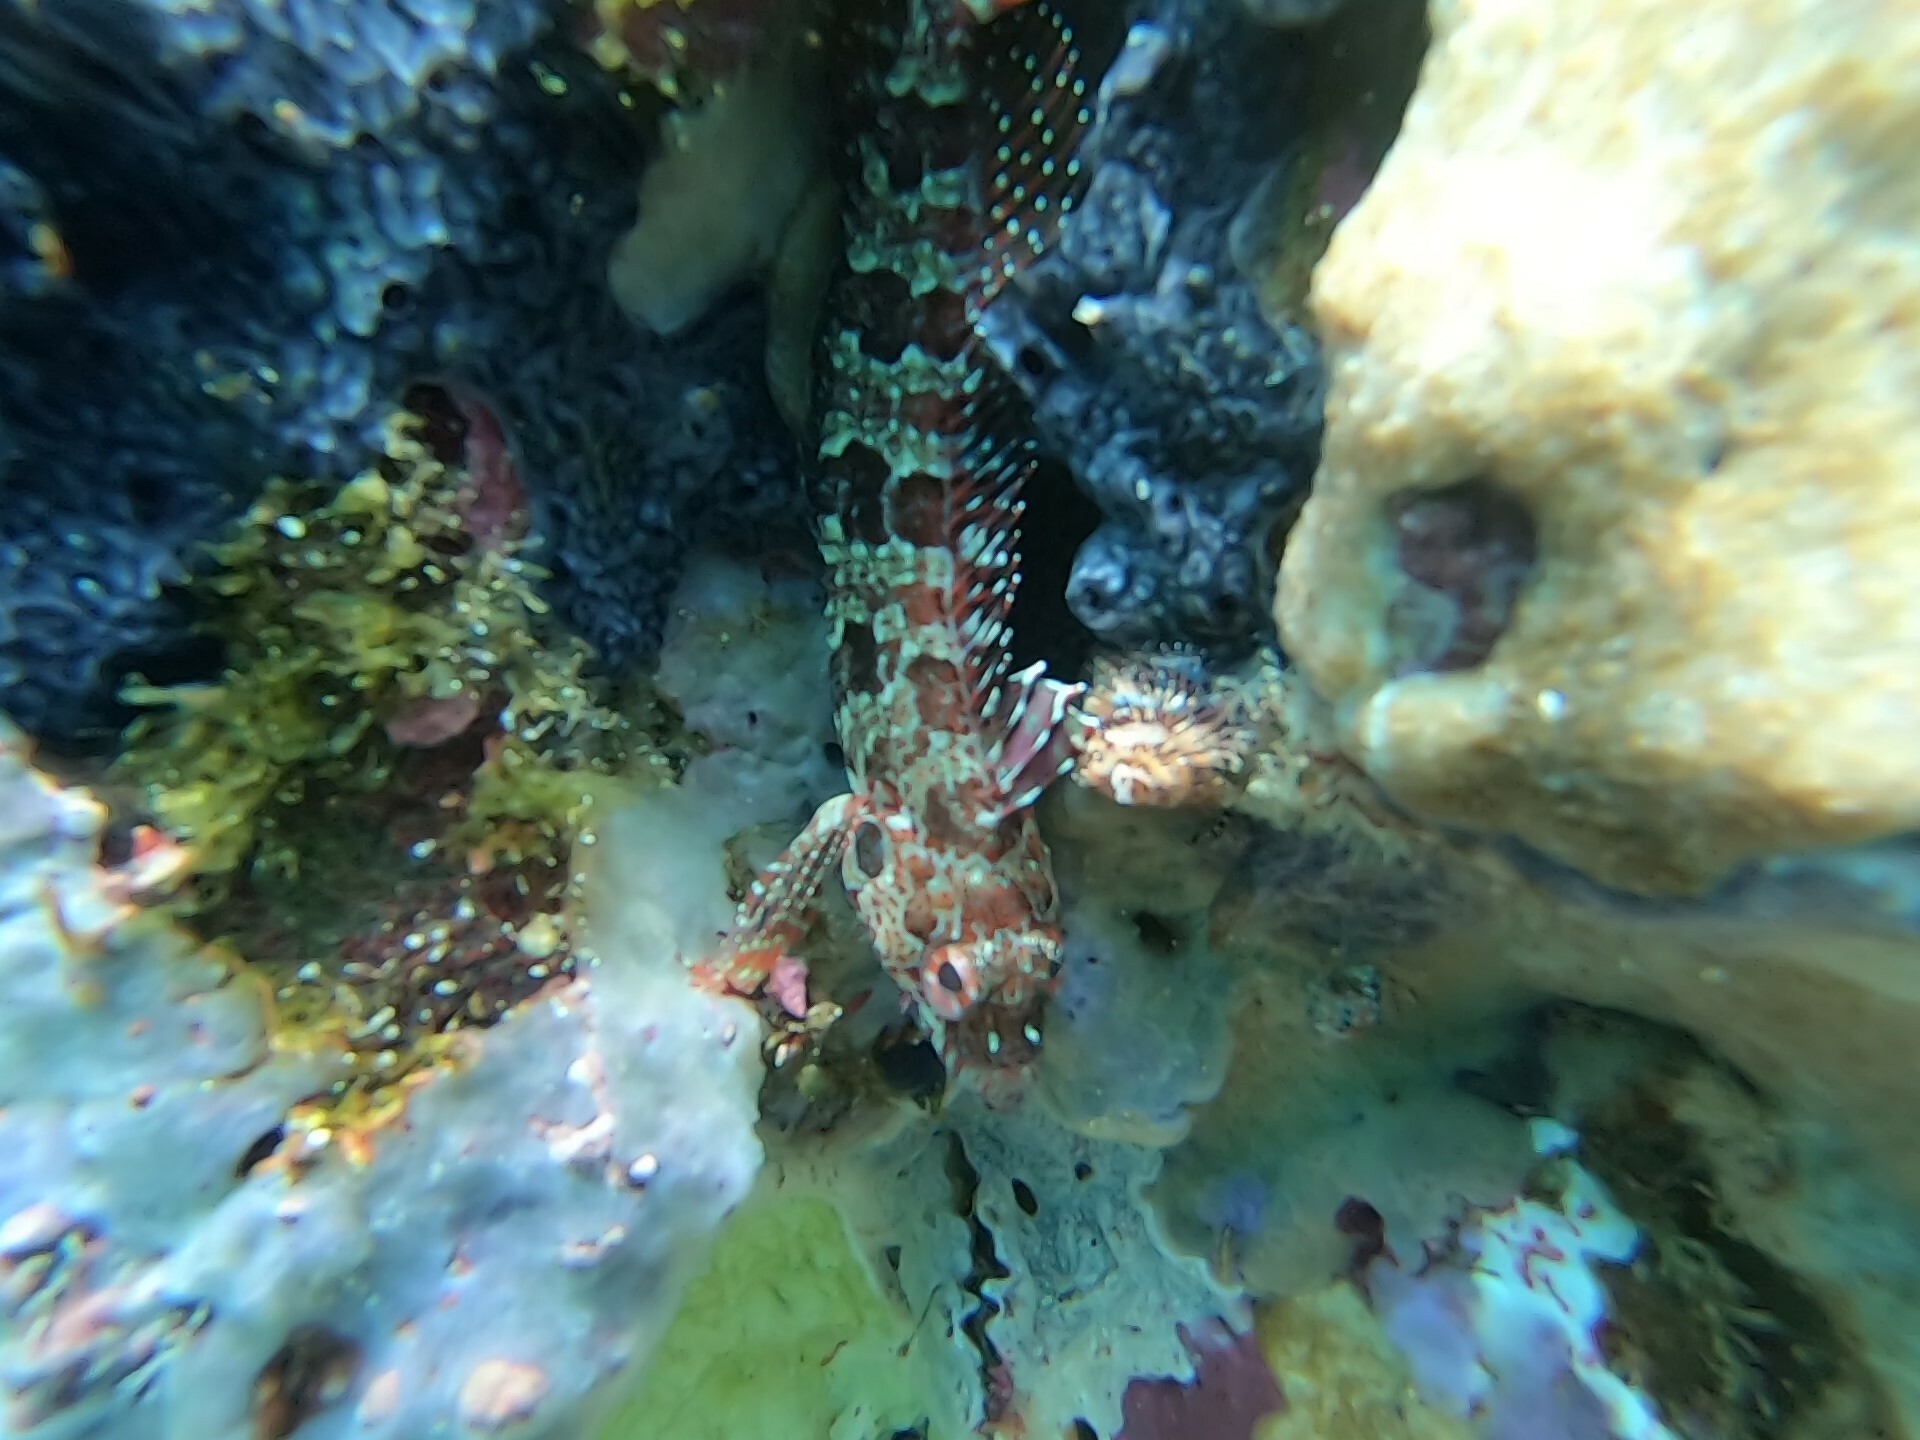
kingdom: Animalia
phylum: Chordata
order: Perciformes
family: Labrisomidae
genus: Gobioclinus
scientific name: Gobioclinus dendriticus
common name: Bravo clinid
